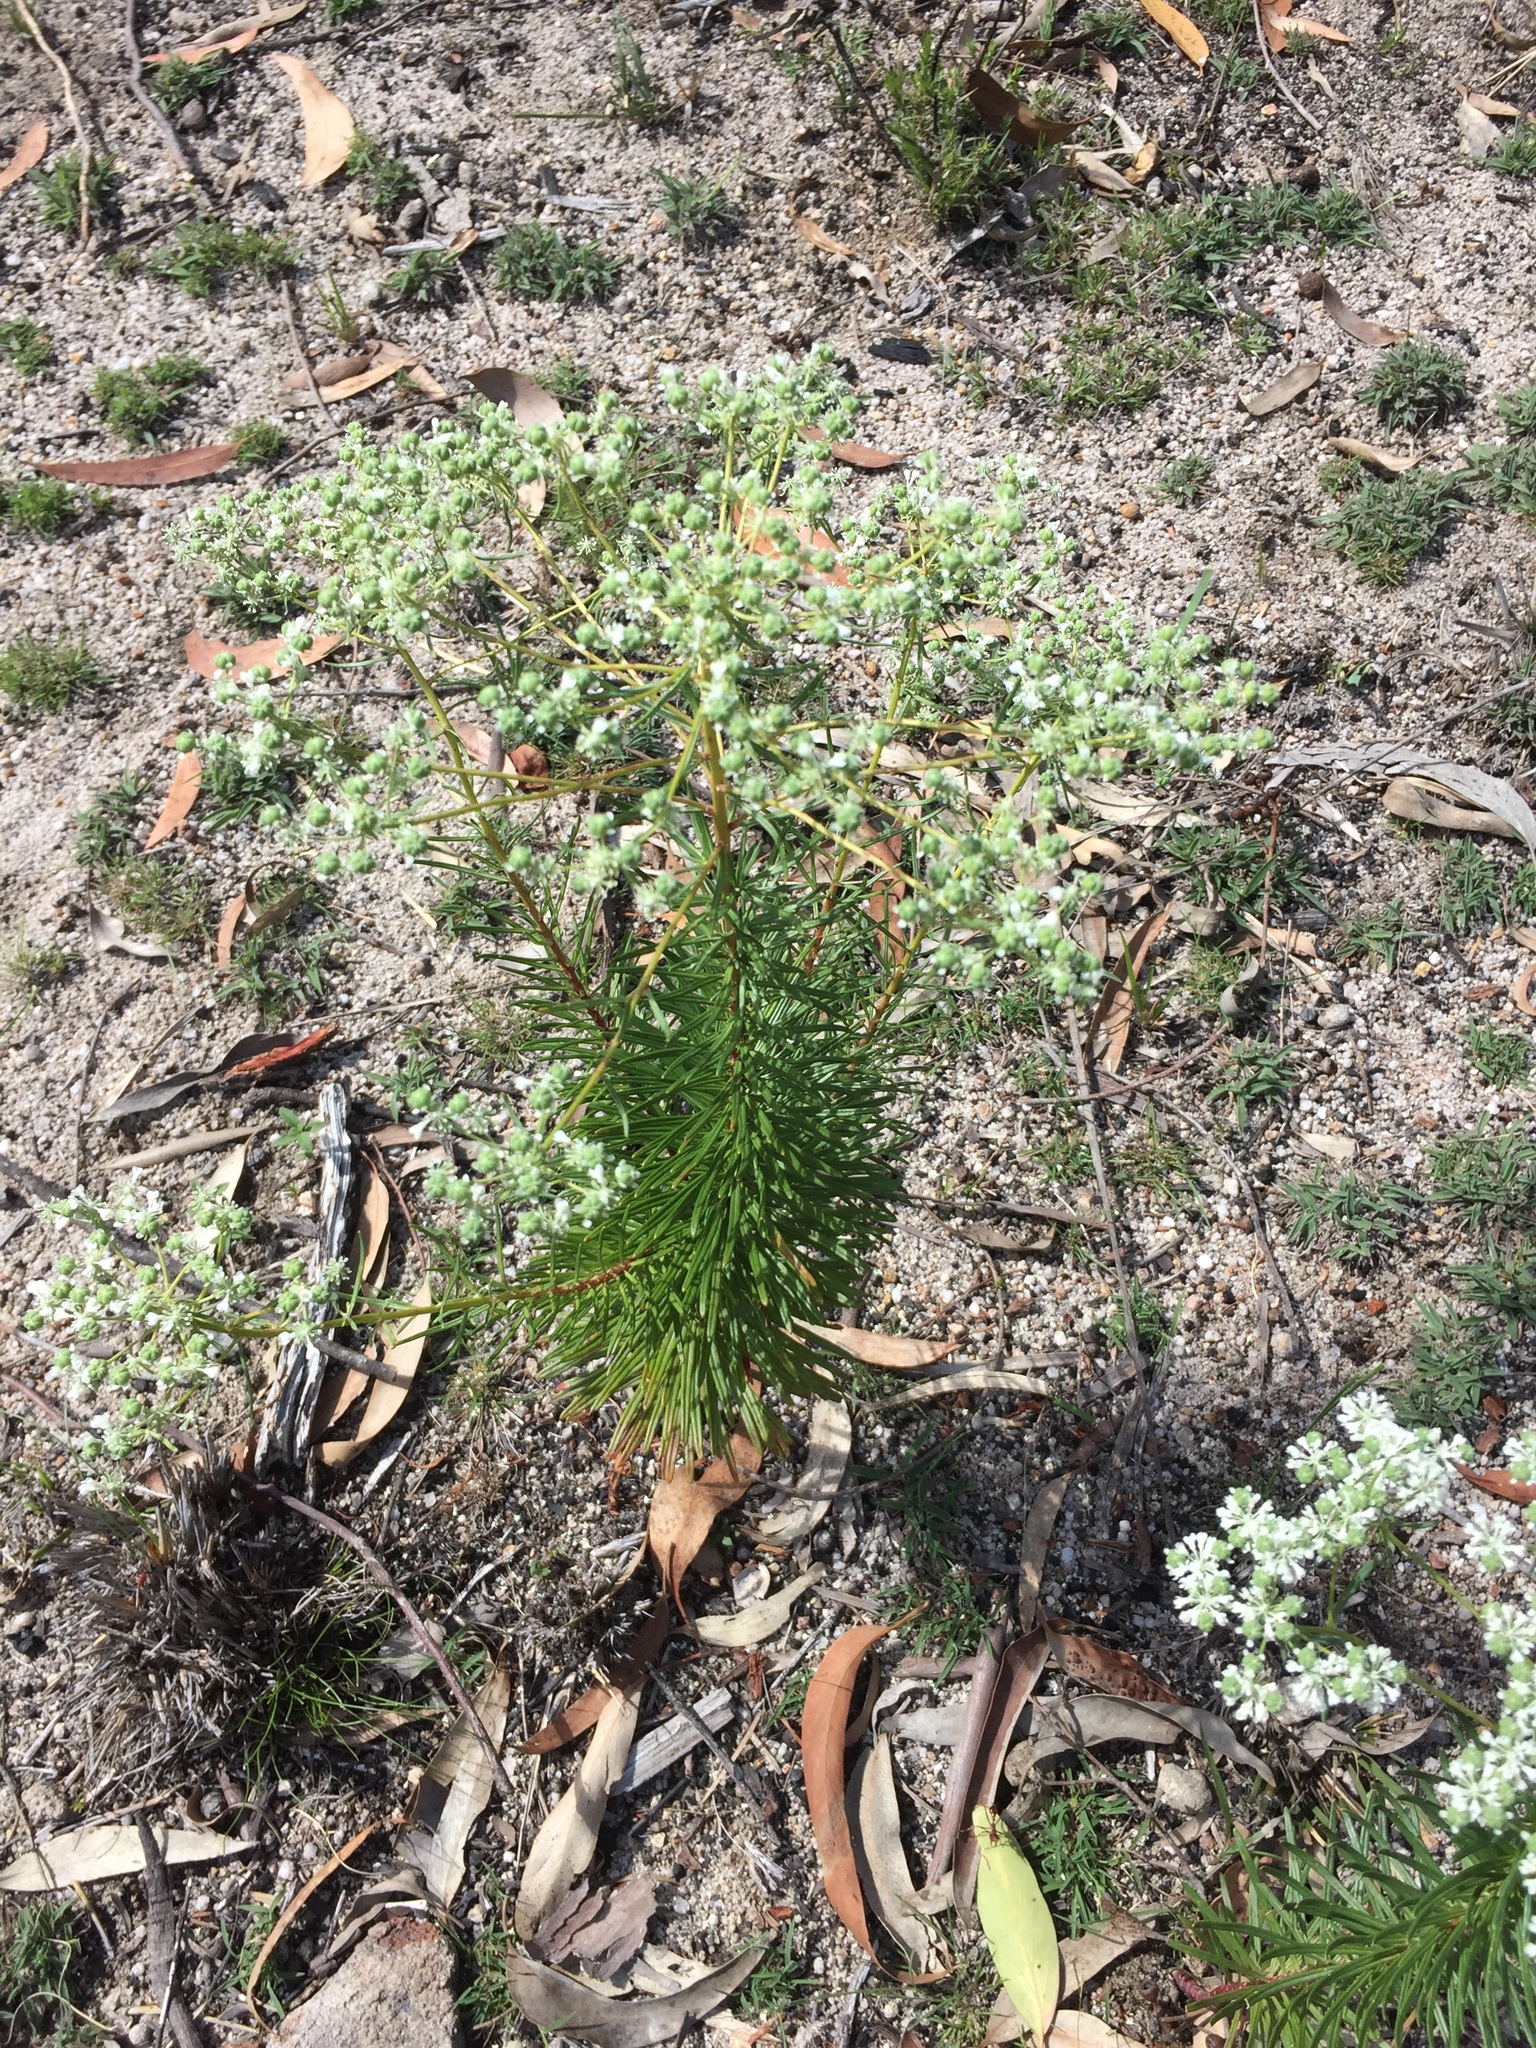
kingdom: Plantae
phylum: Tracheophyta
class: Magnoliopsida
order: Malpighiales
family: Phyllanthaceae
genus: Poranthera
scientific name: Poranthera corymbosa
